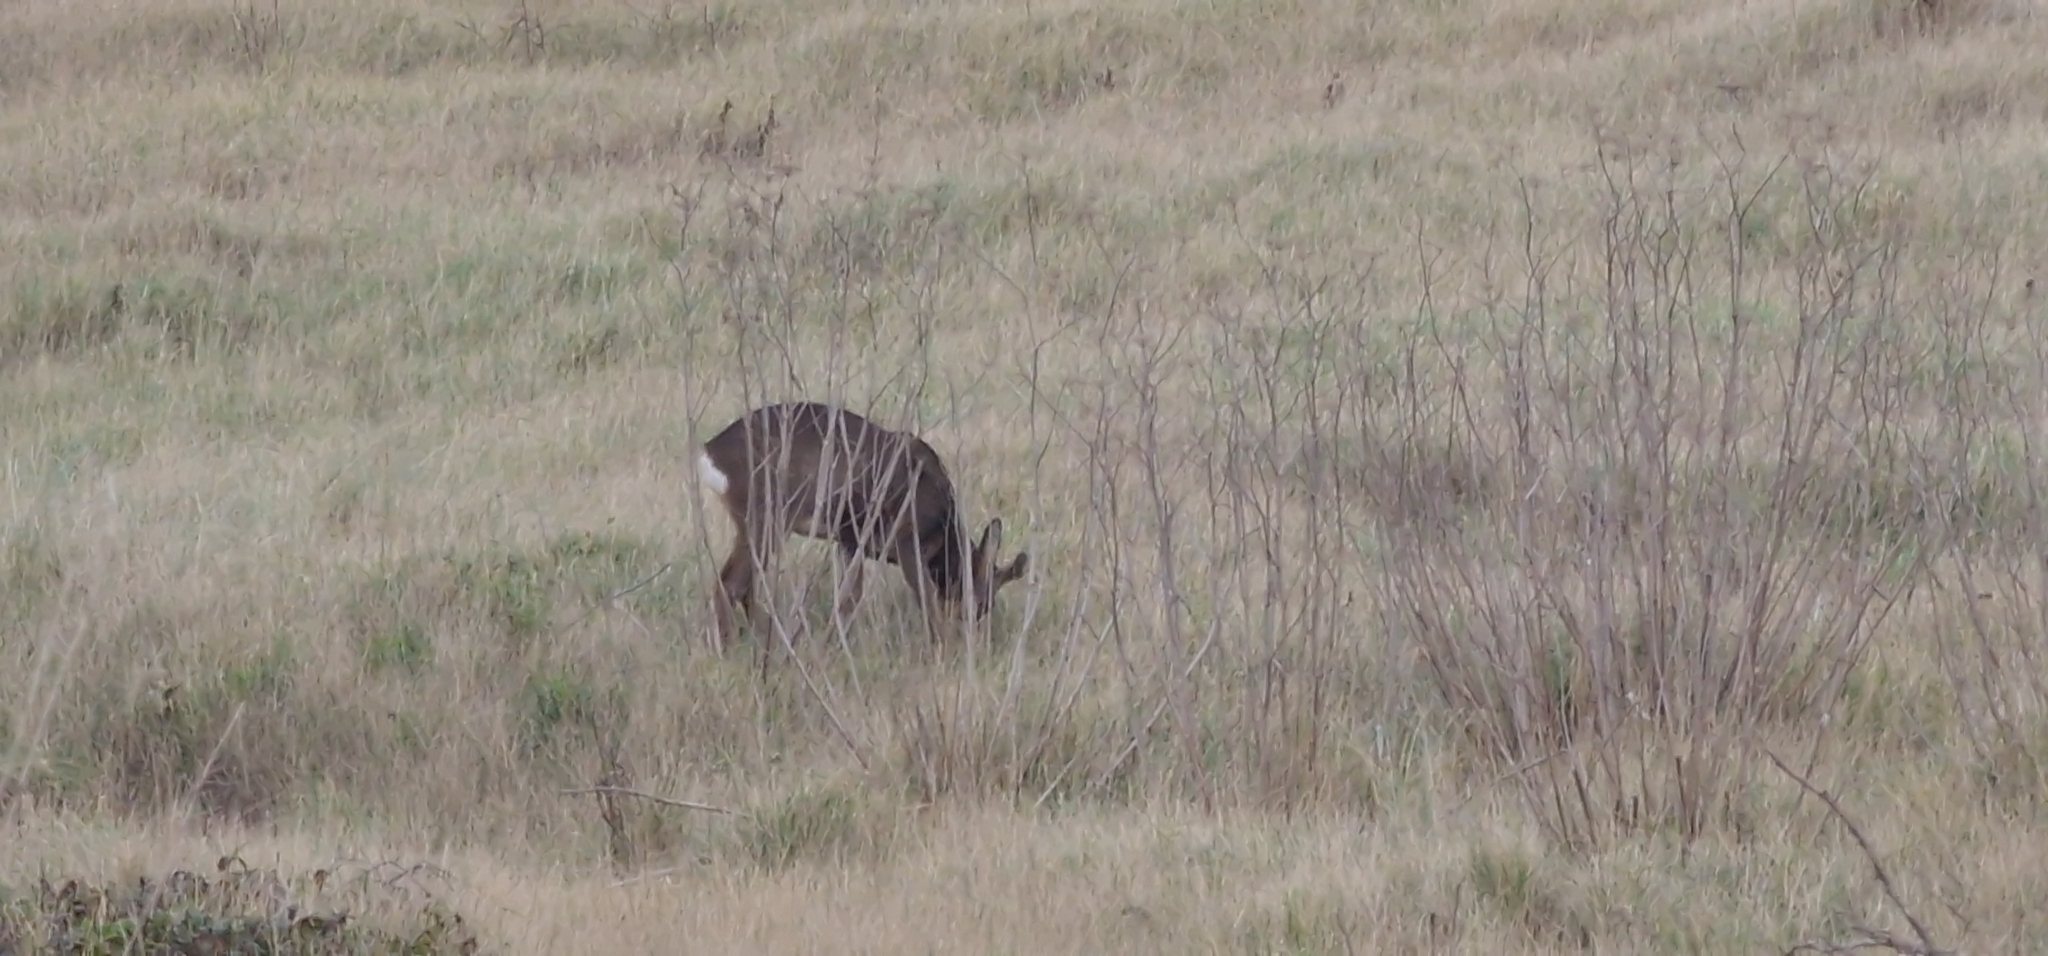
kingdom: Animalia
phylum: Chordata
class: Mammalia
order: Artiodactyla
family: Cervidae
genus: Capreolus
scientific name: Capreolus capreolus
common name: Western roe deer
